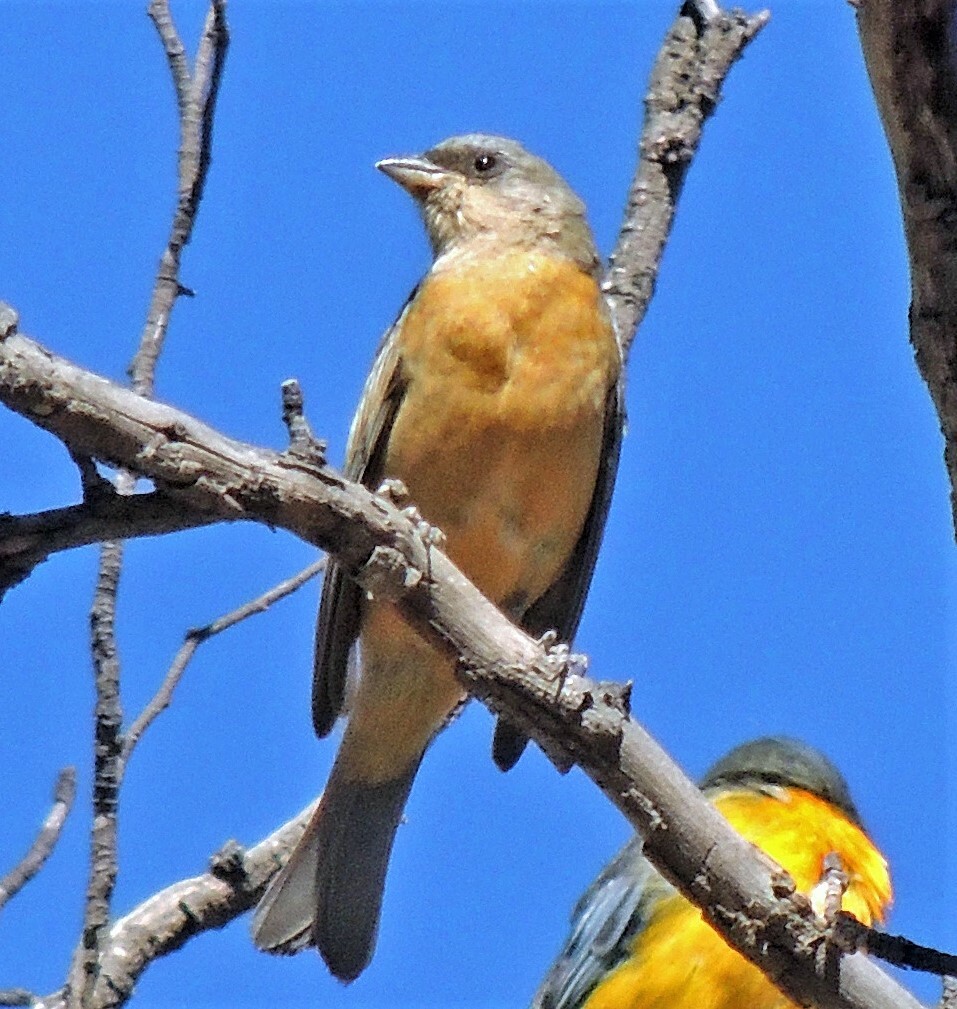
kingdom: Animalia
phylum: Chordata
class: Aves
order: Passeriformes
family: Thraupidae
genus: Rauenia
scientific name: Rauenia bonariensis
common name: Blue-and-yellow tanager
